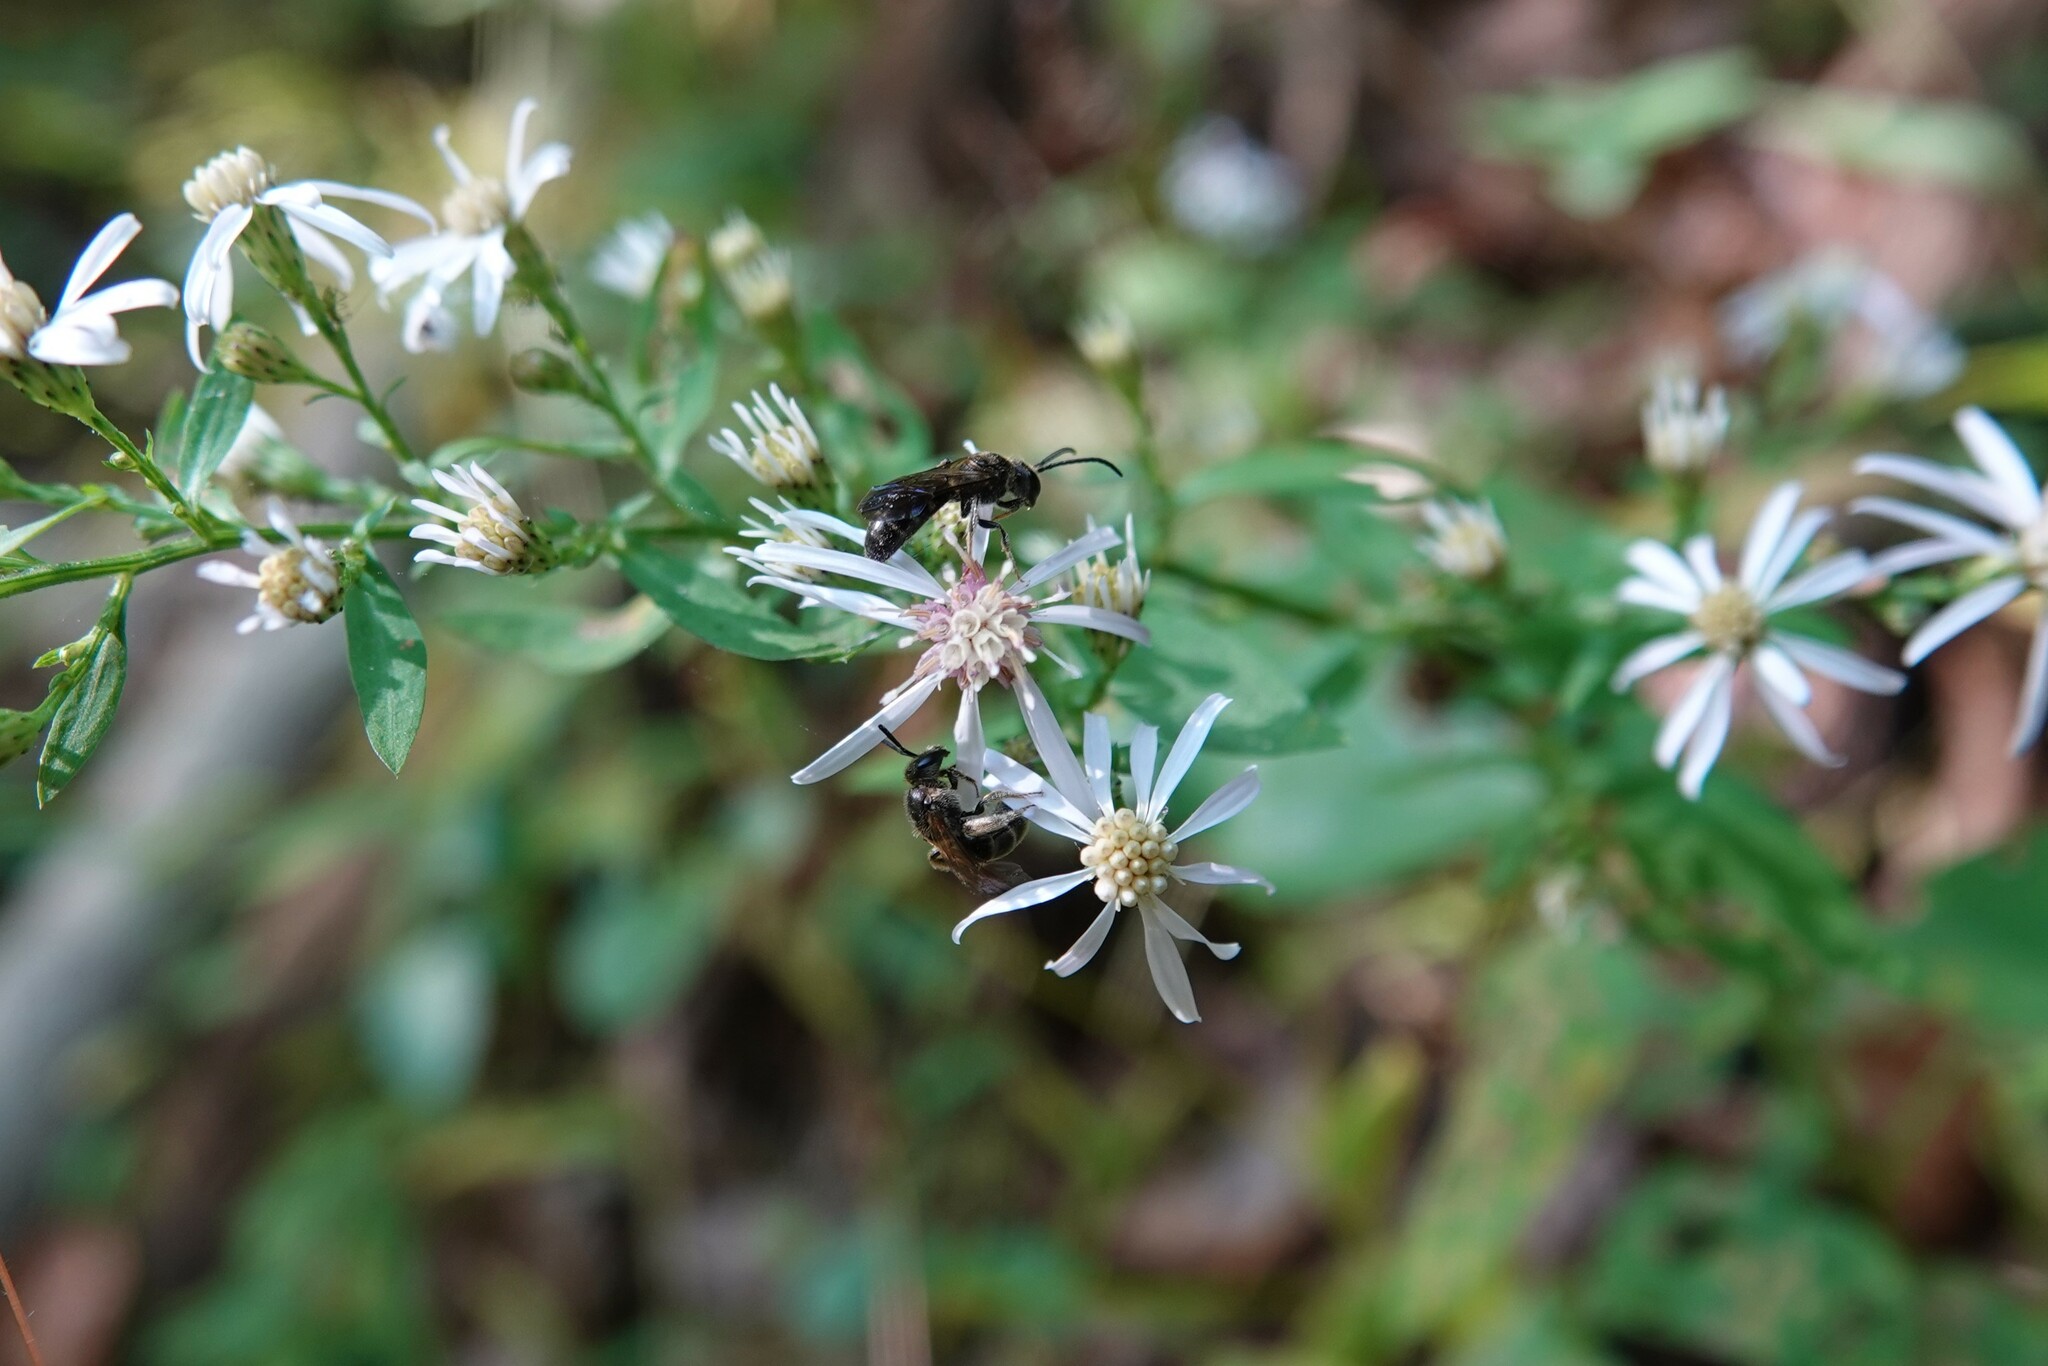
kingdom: Animalia
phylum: Arthropoda
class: Insecta
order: Hymenoptera
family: Halictidae
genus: Lasioglossum
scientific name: Lasioglossum fuscipenne
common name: Brown-winged sweat bee
